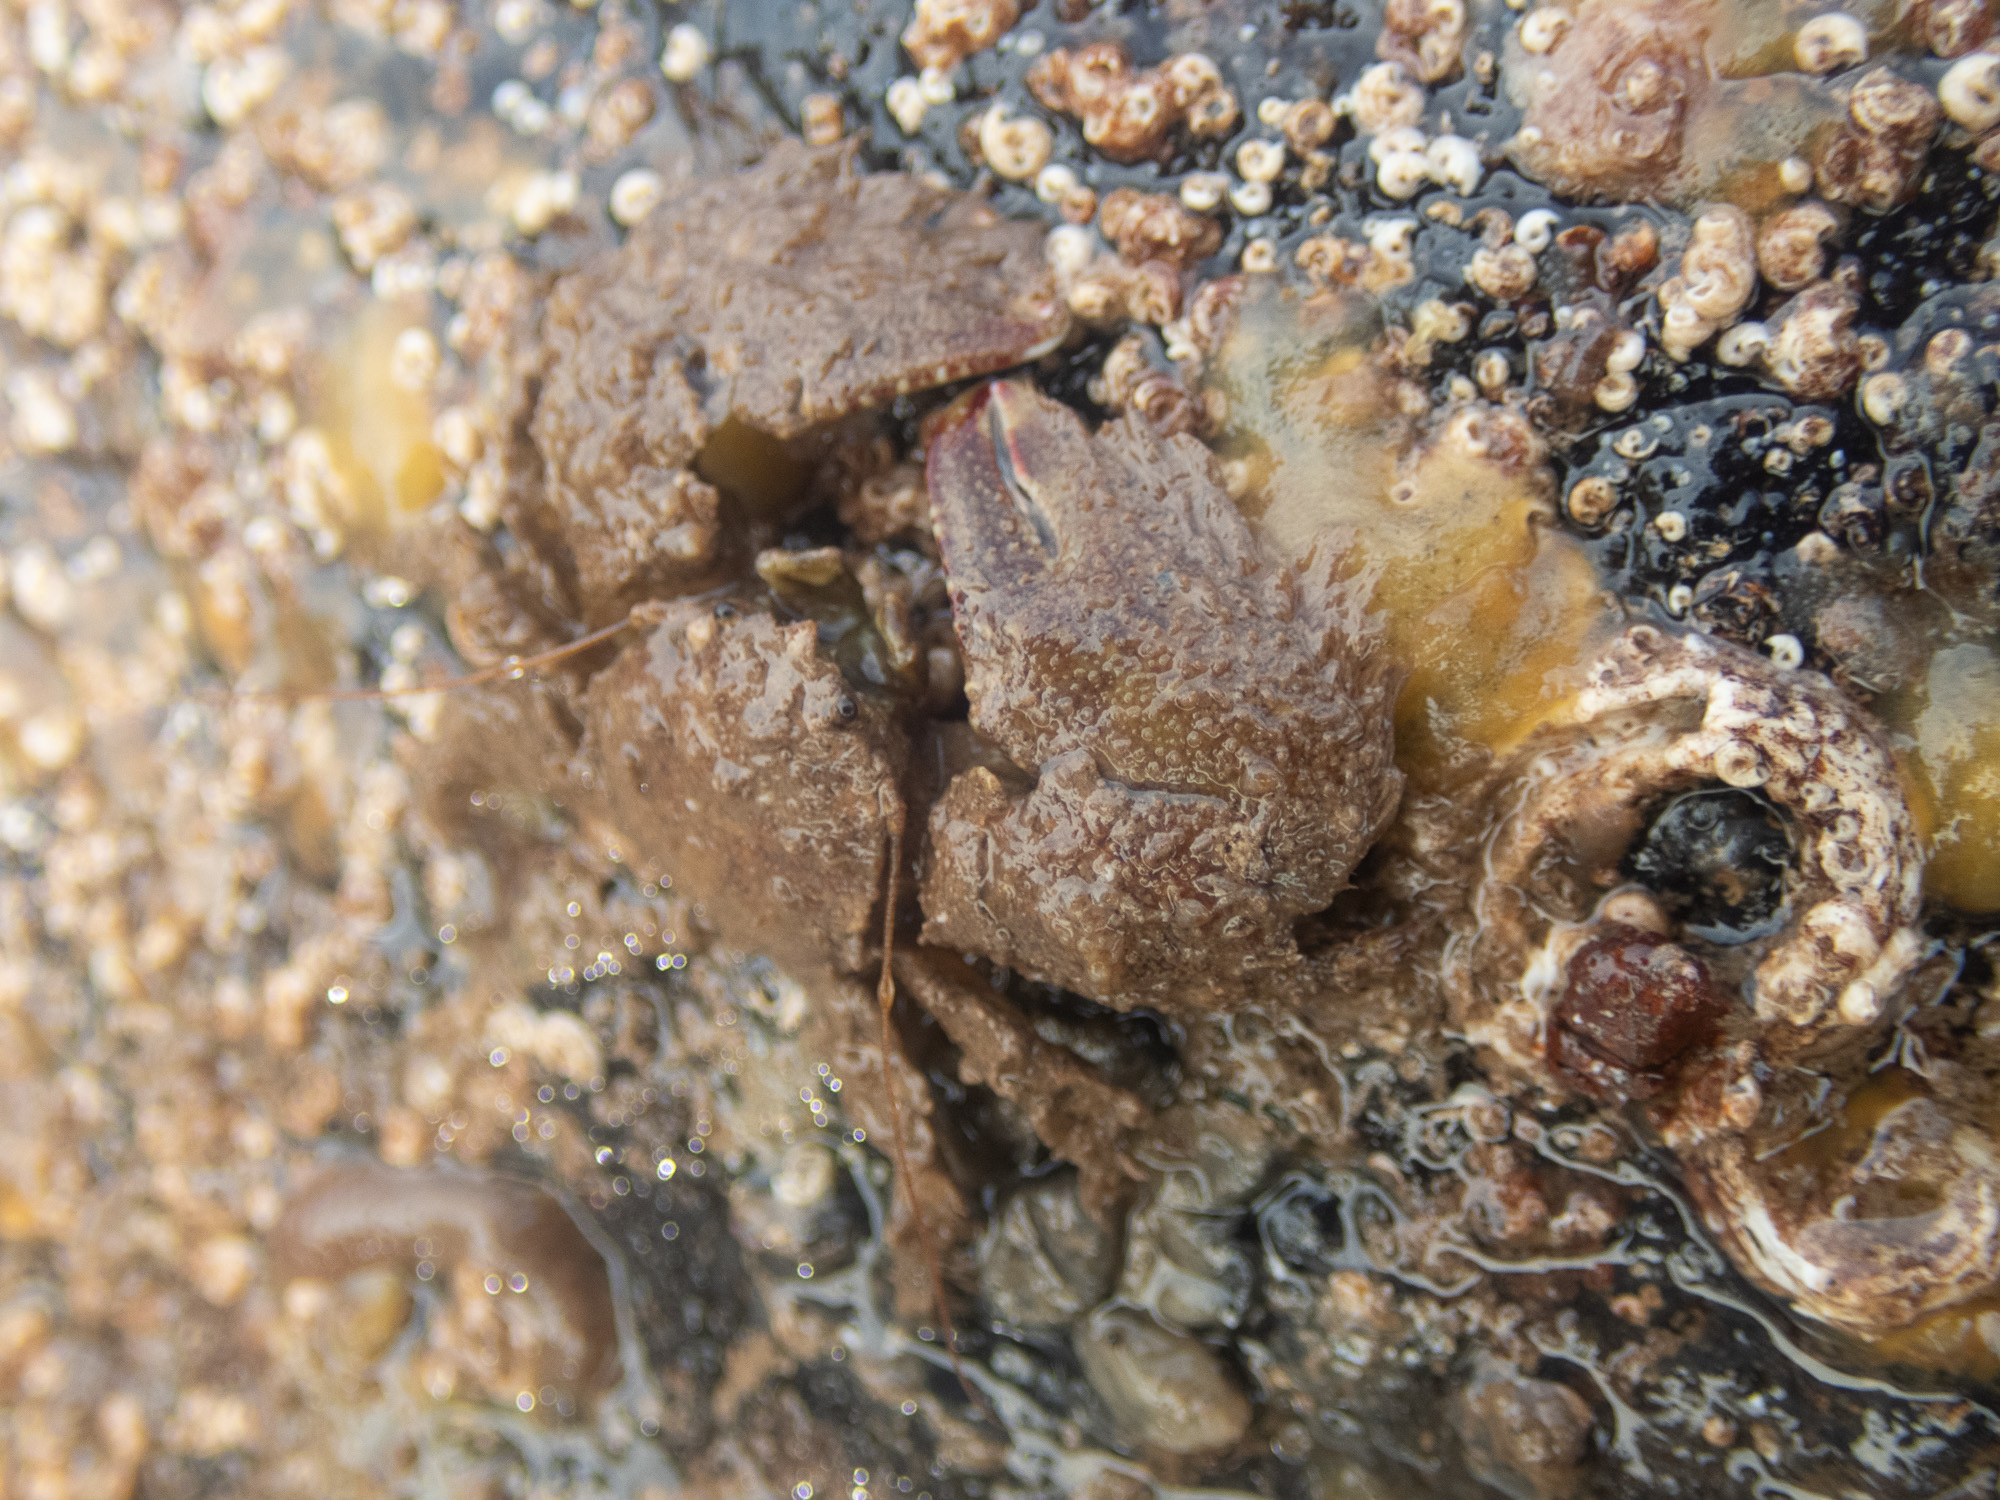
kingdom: Animalia
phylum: Arthropoda
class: Malacostraca
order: Decapoda
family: Porcellanidae
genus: Porcellana
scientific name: Porcellana platycheles
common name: Porcelain crab
